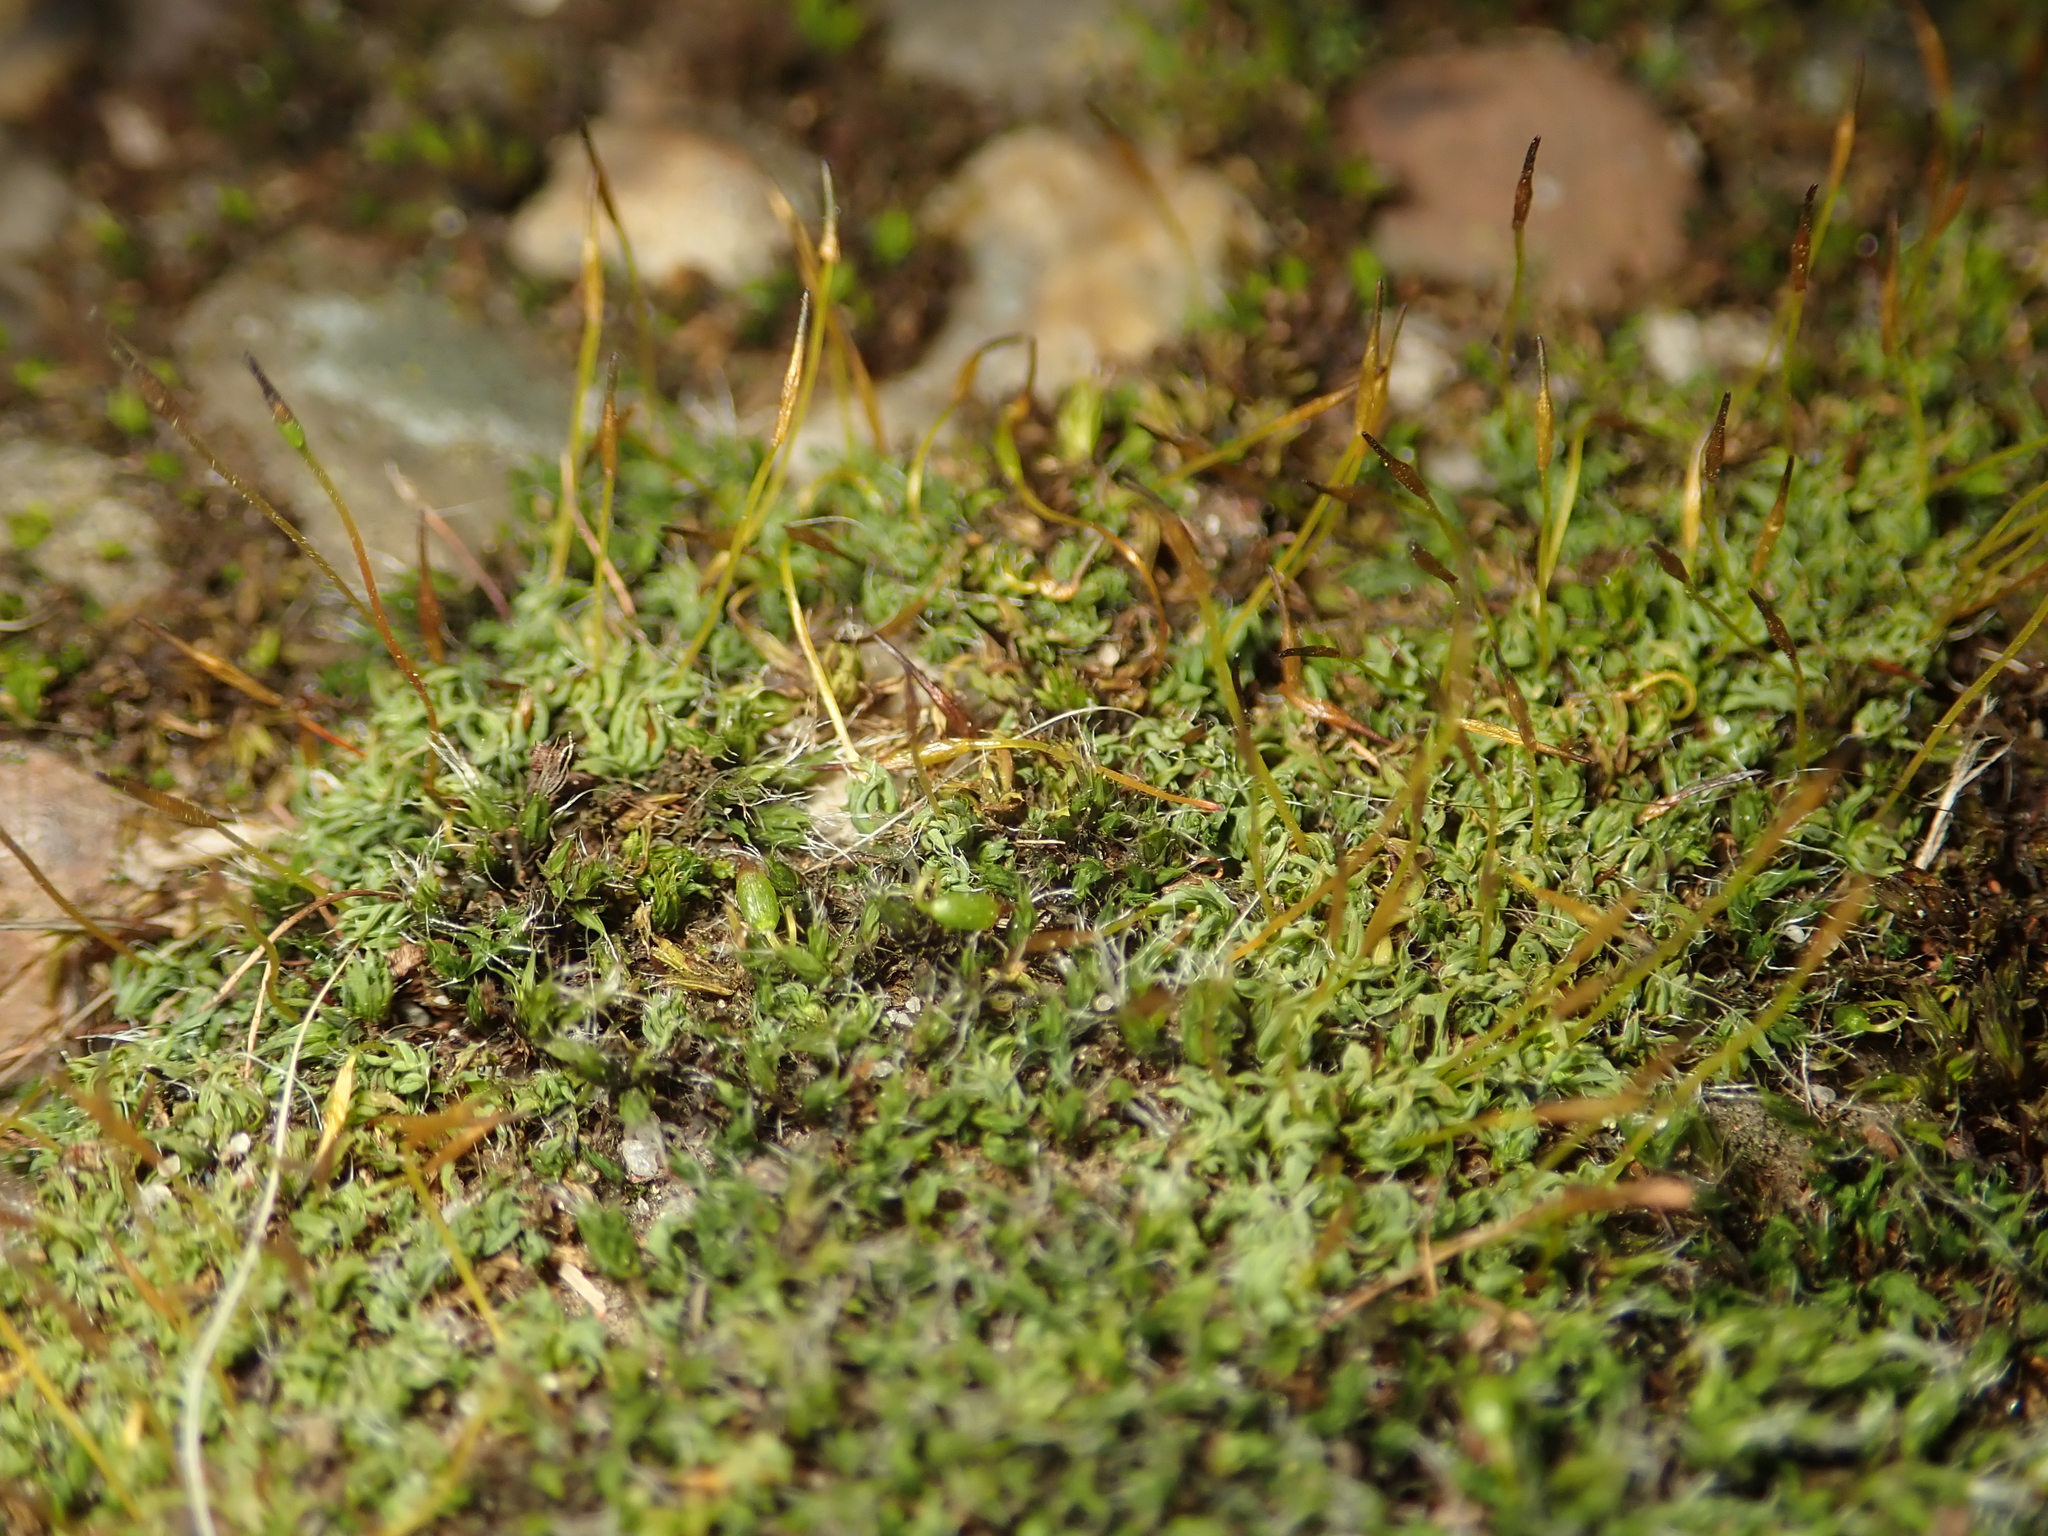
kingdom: Plantae
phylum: Bryophyta
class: Bryopsida
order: Pottiales
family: Pottiaceae
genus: Tortula
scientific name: Tortula muralis
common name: Wall screw-moss
